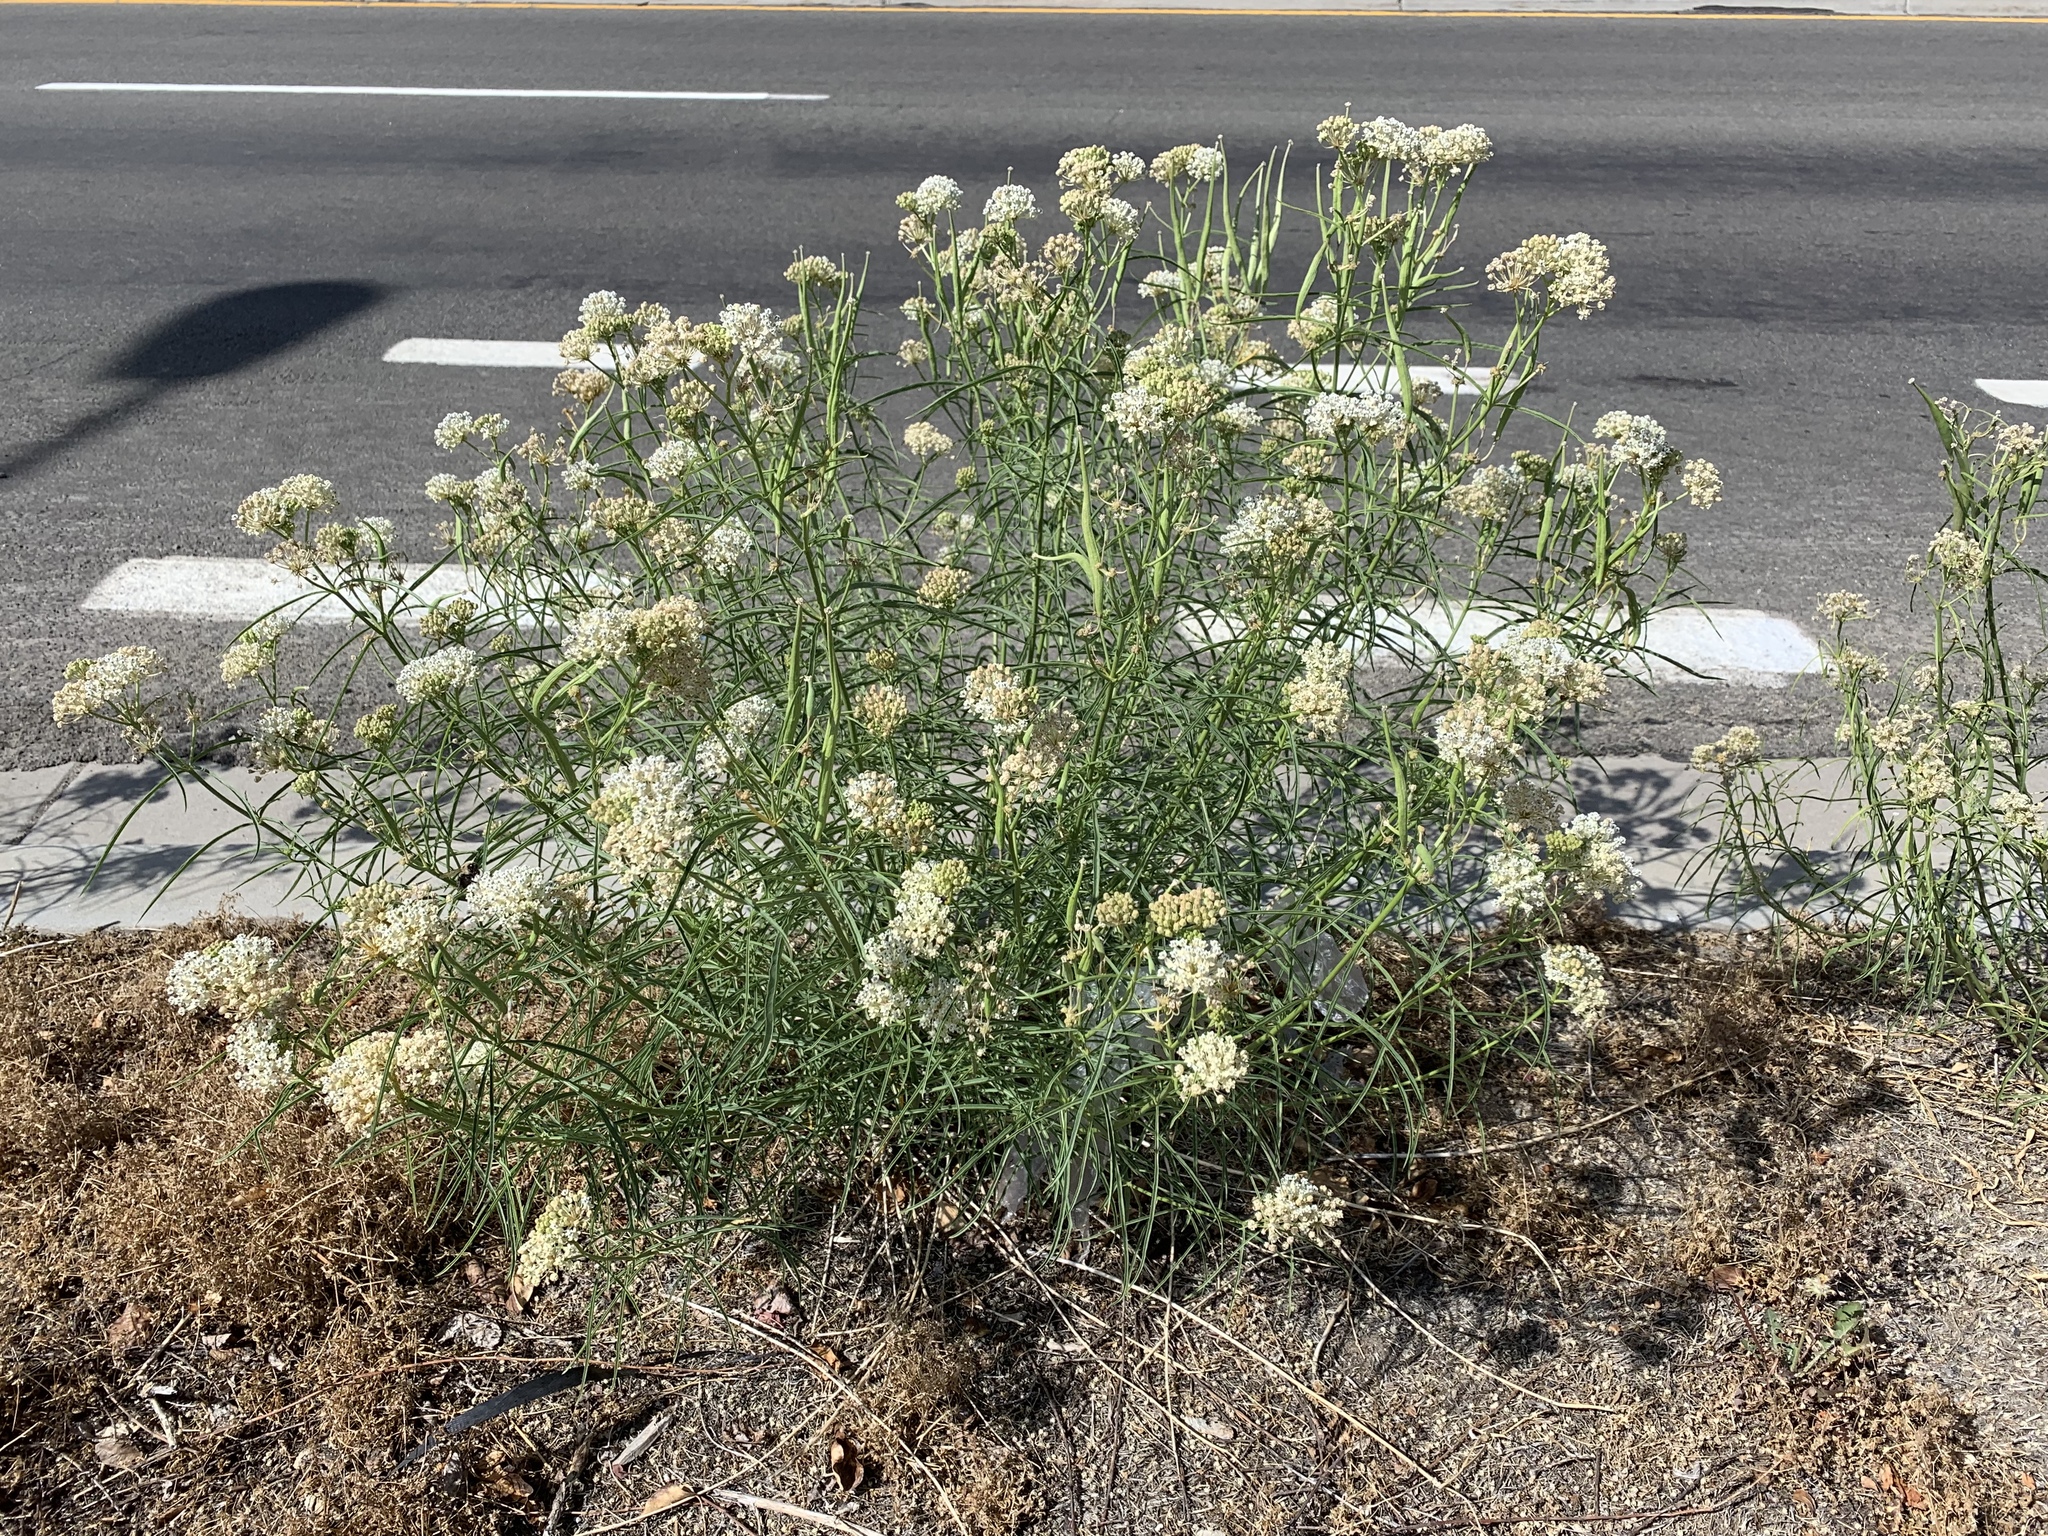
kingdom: Plantae
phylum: Tracheophyta
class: Magnoliopsida
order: Gentianales
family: Apocynaceae
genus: Asclepias
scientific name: Asclepias fascicularis
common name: Mexican milkweed
